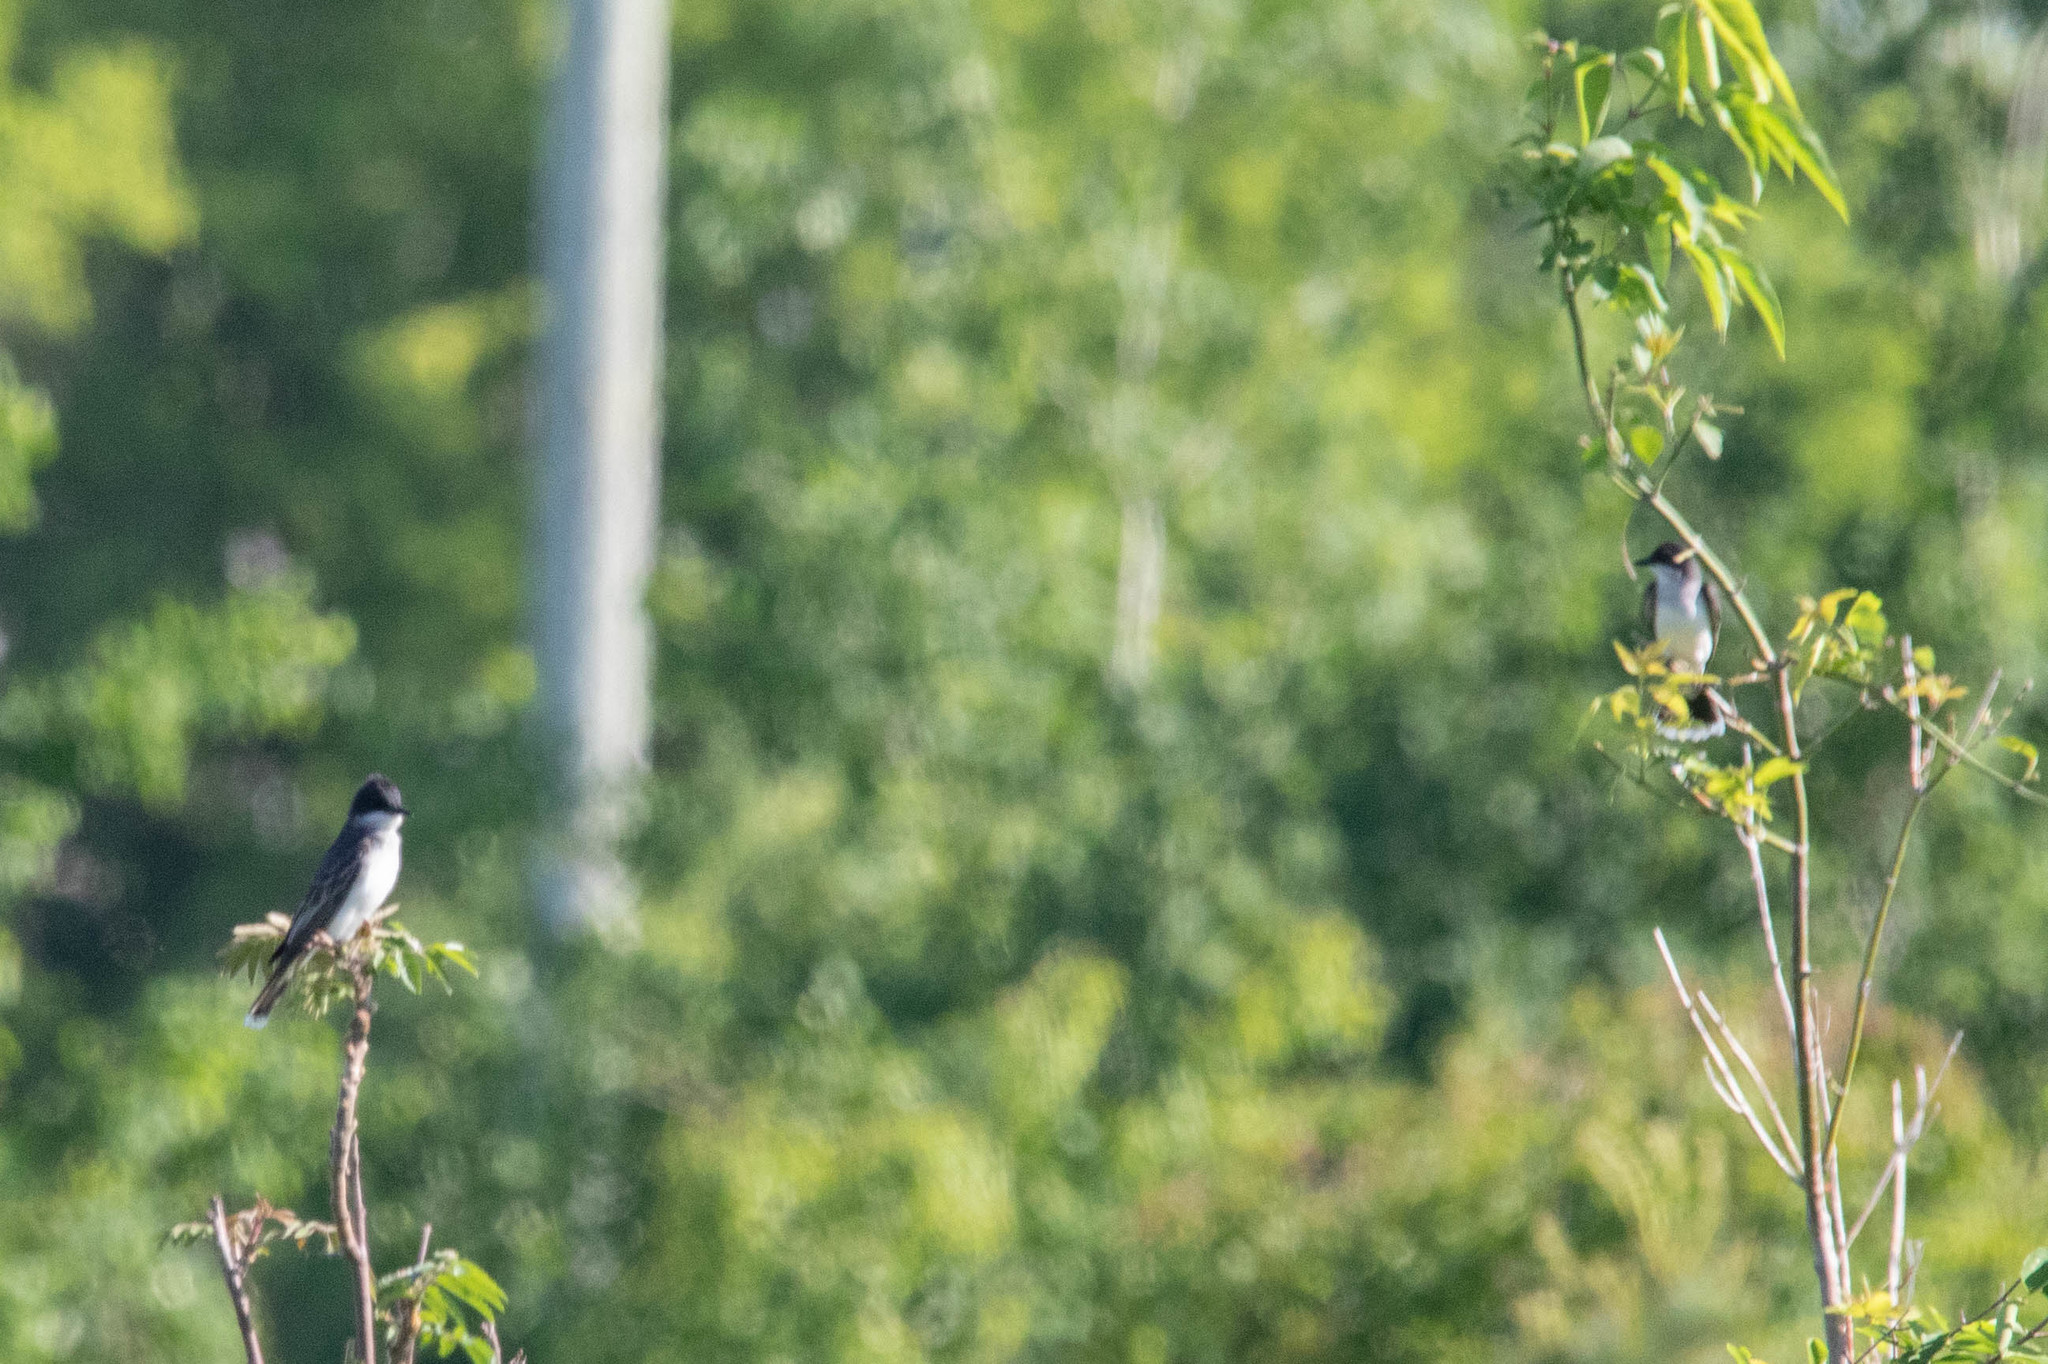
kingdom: Animalia
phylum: Chordata
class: Aves
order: Passeriformes
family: Tyrannidae
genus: Tyrannus
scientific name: Tyrannus tyrannus
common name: Eastern kingbird
